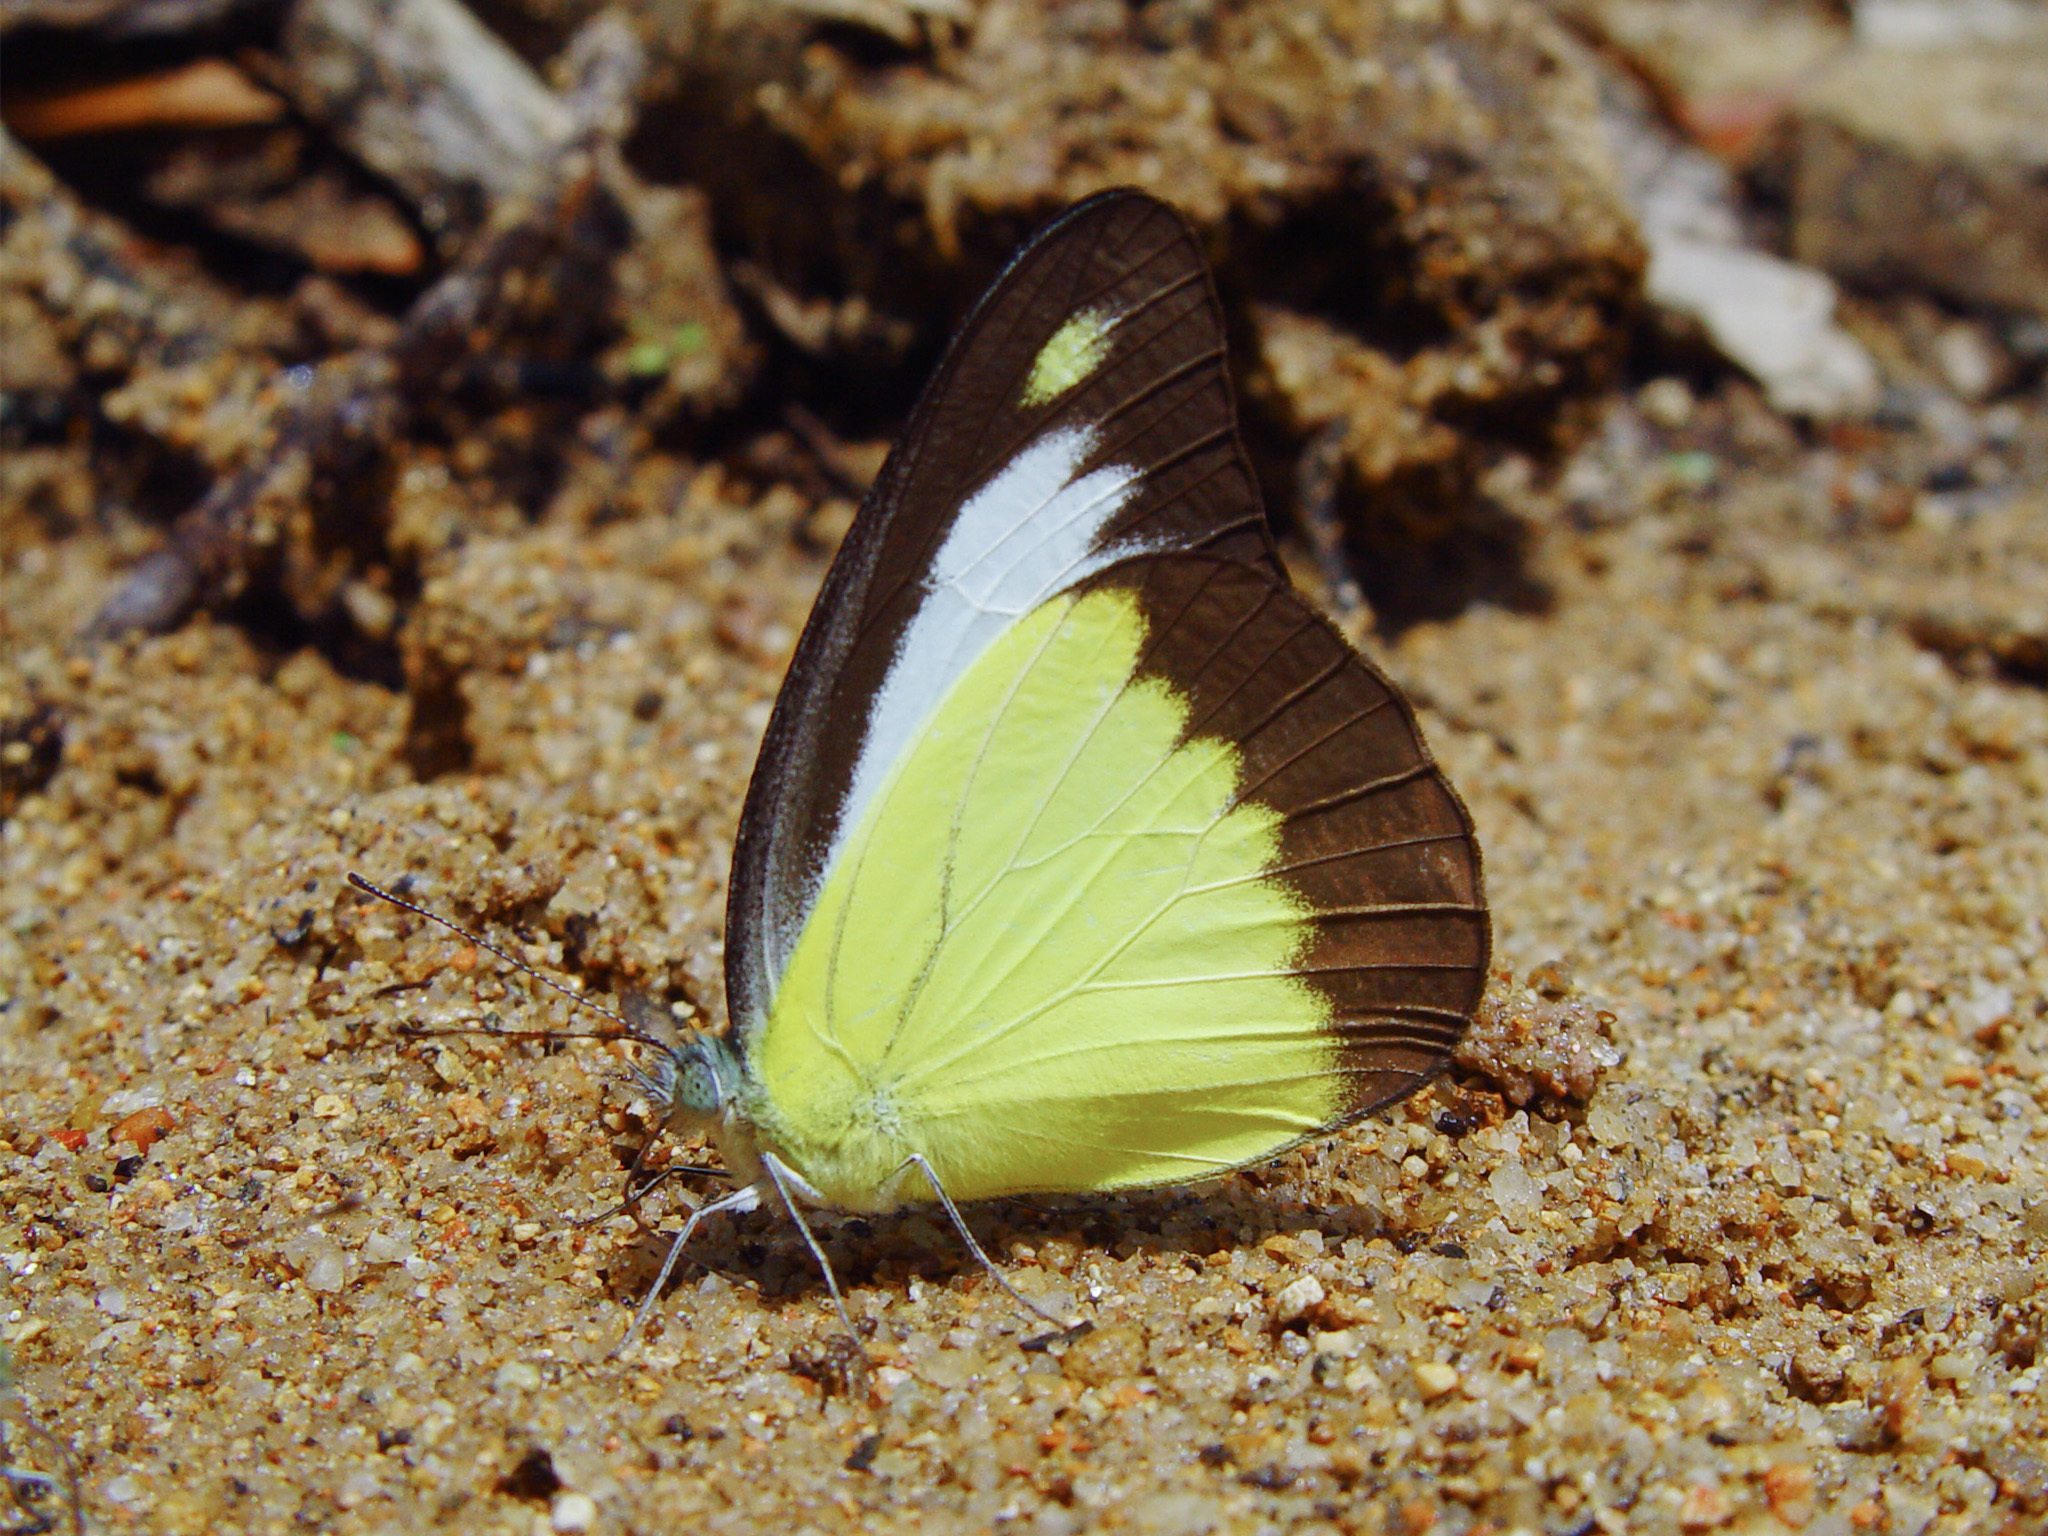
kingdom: Animalia
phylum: Arthropoda
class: Insecta
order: Lepidoptera
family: Pieridae
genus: Appias
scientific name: Appias lyncida
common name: Chocolate albatross
